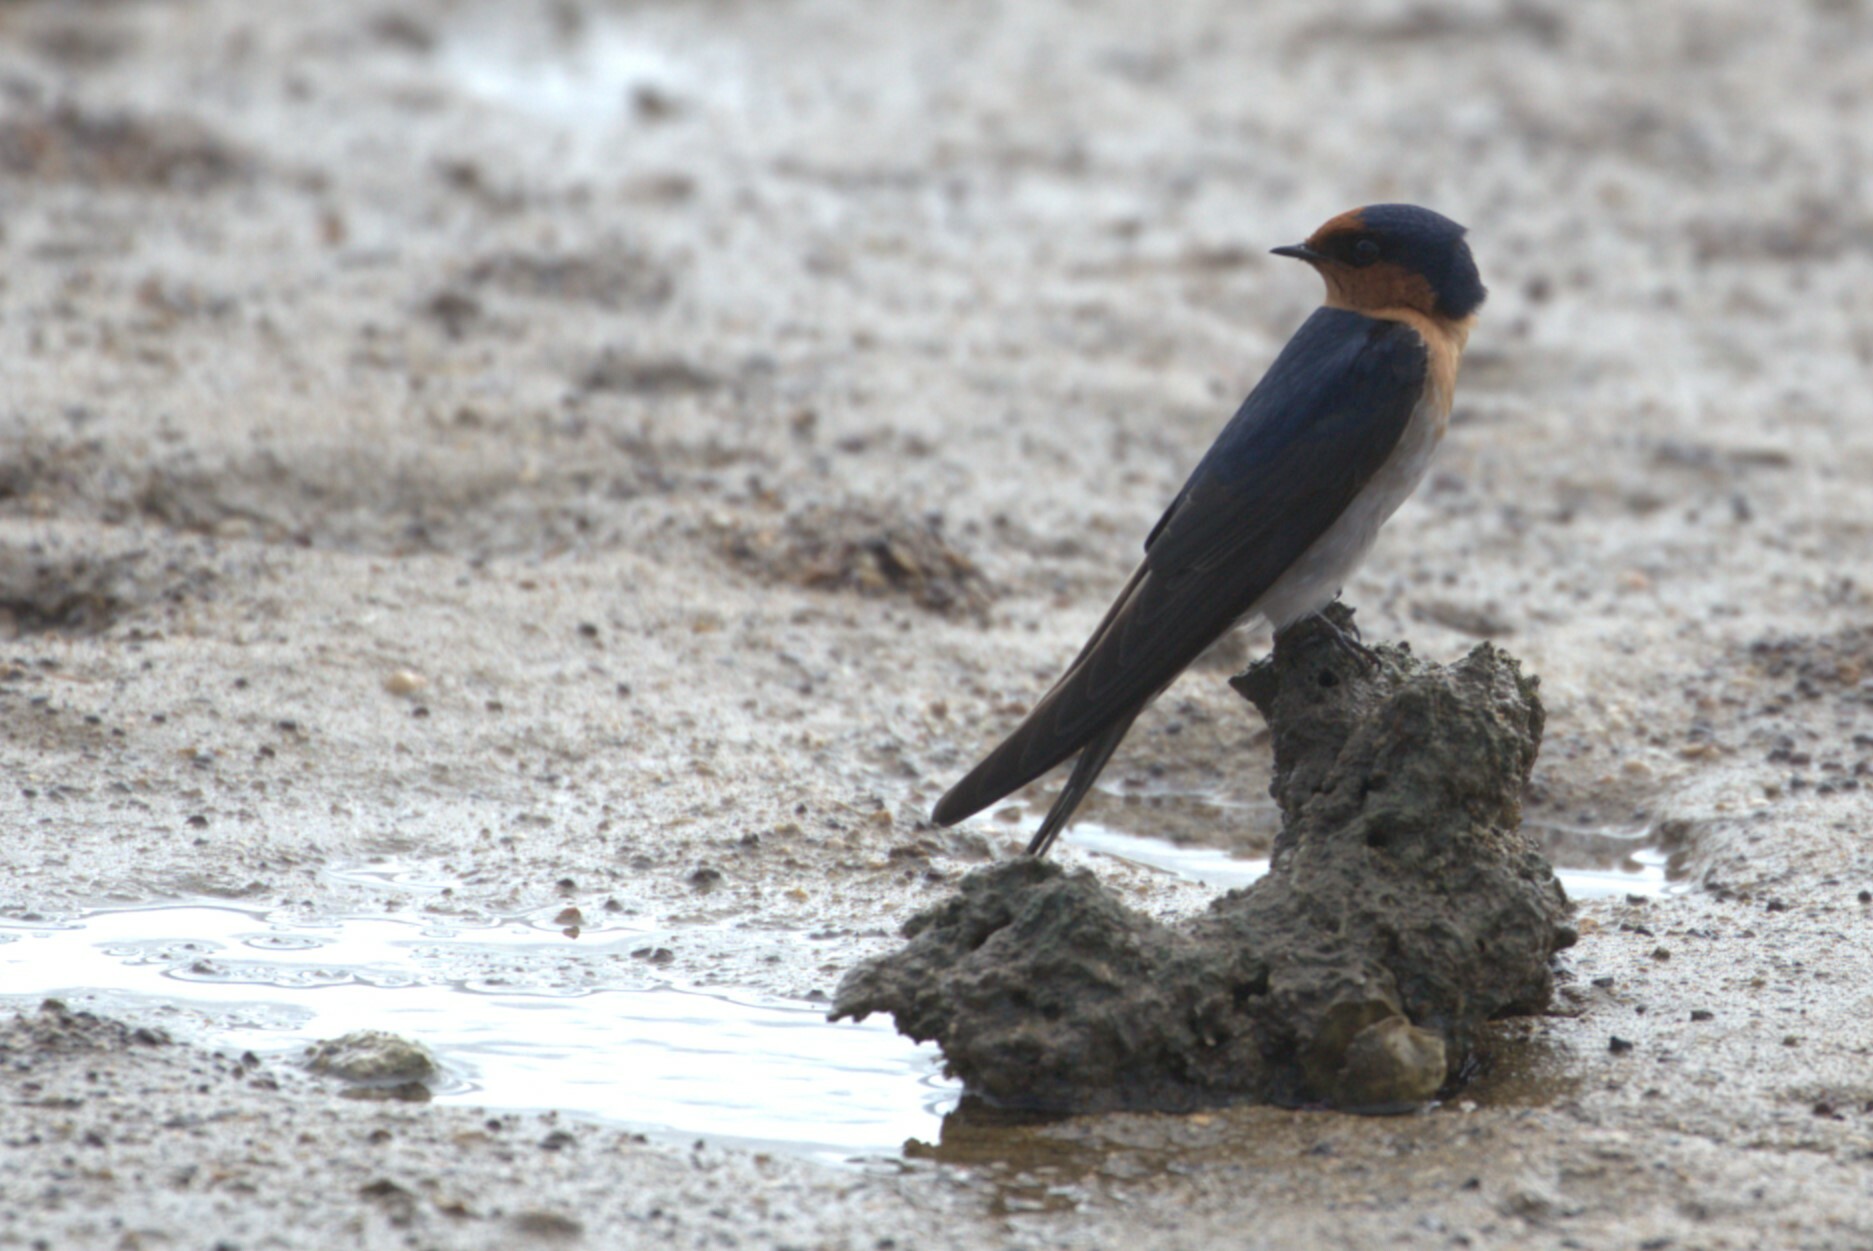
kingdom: Animalia
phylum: Chordata
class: Aves
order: Passeriformes
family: Hirundinidae
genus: Hirundo
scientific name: Hirundo neoxena
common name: Welcome swallow
